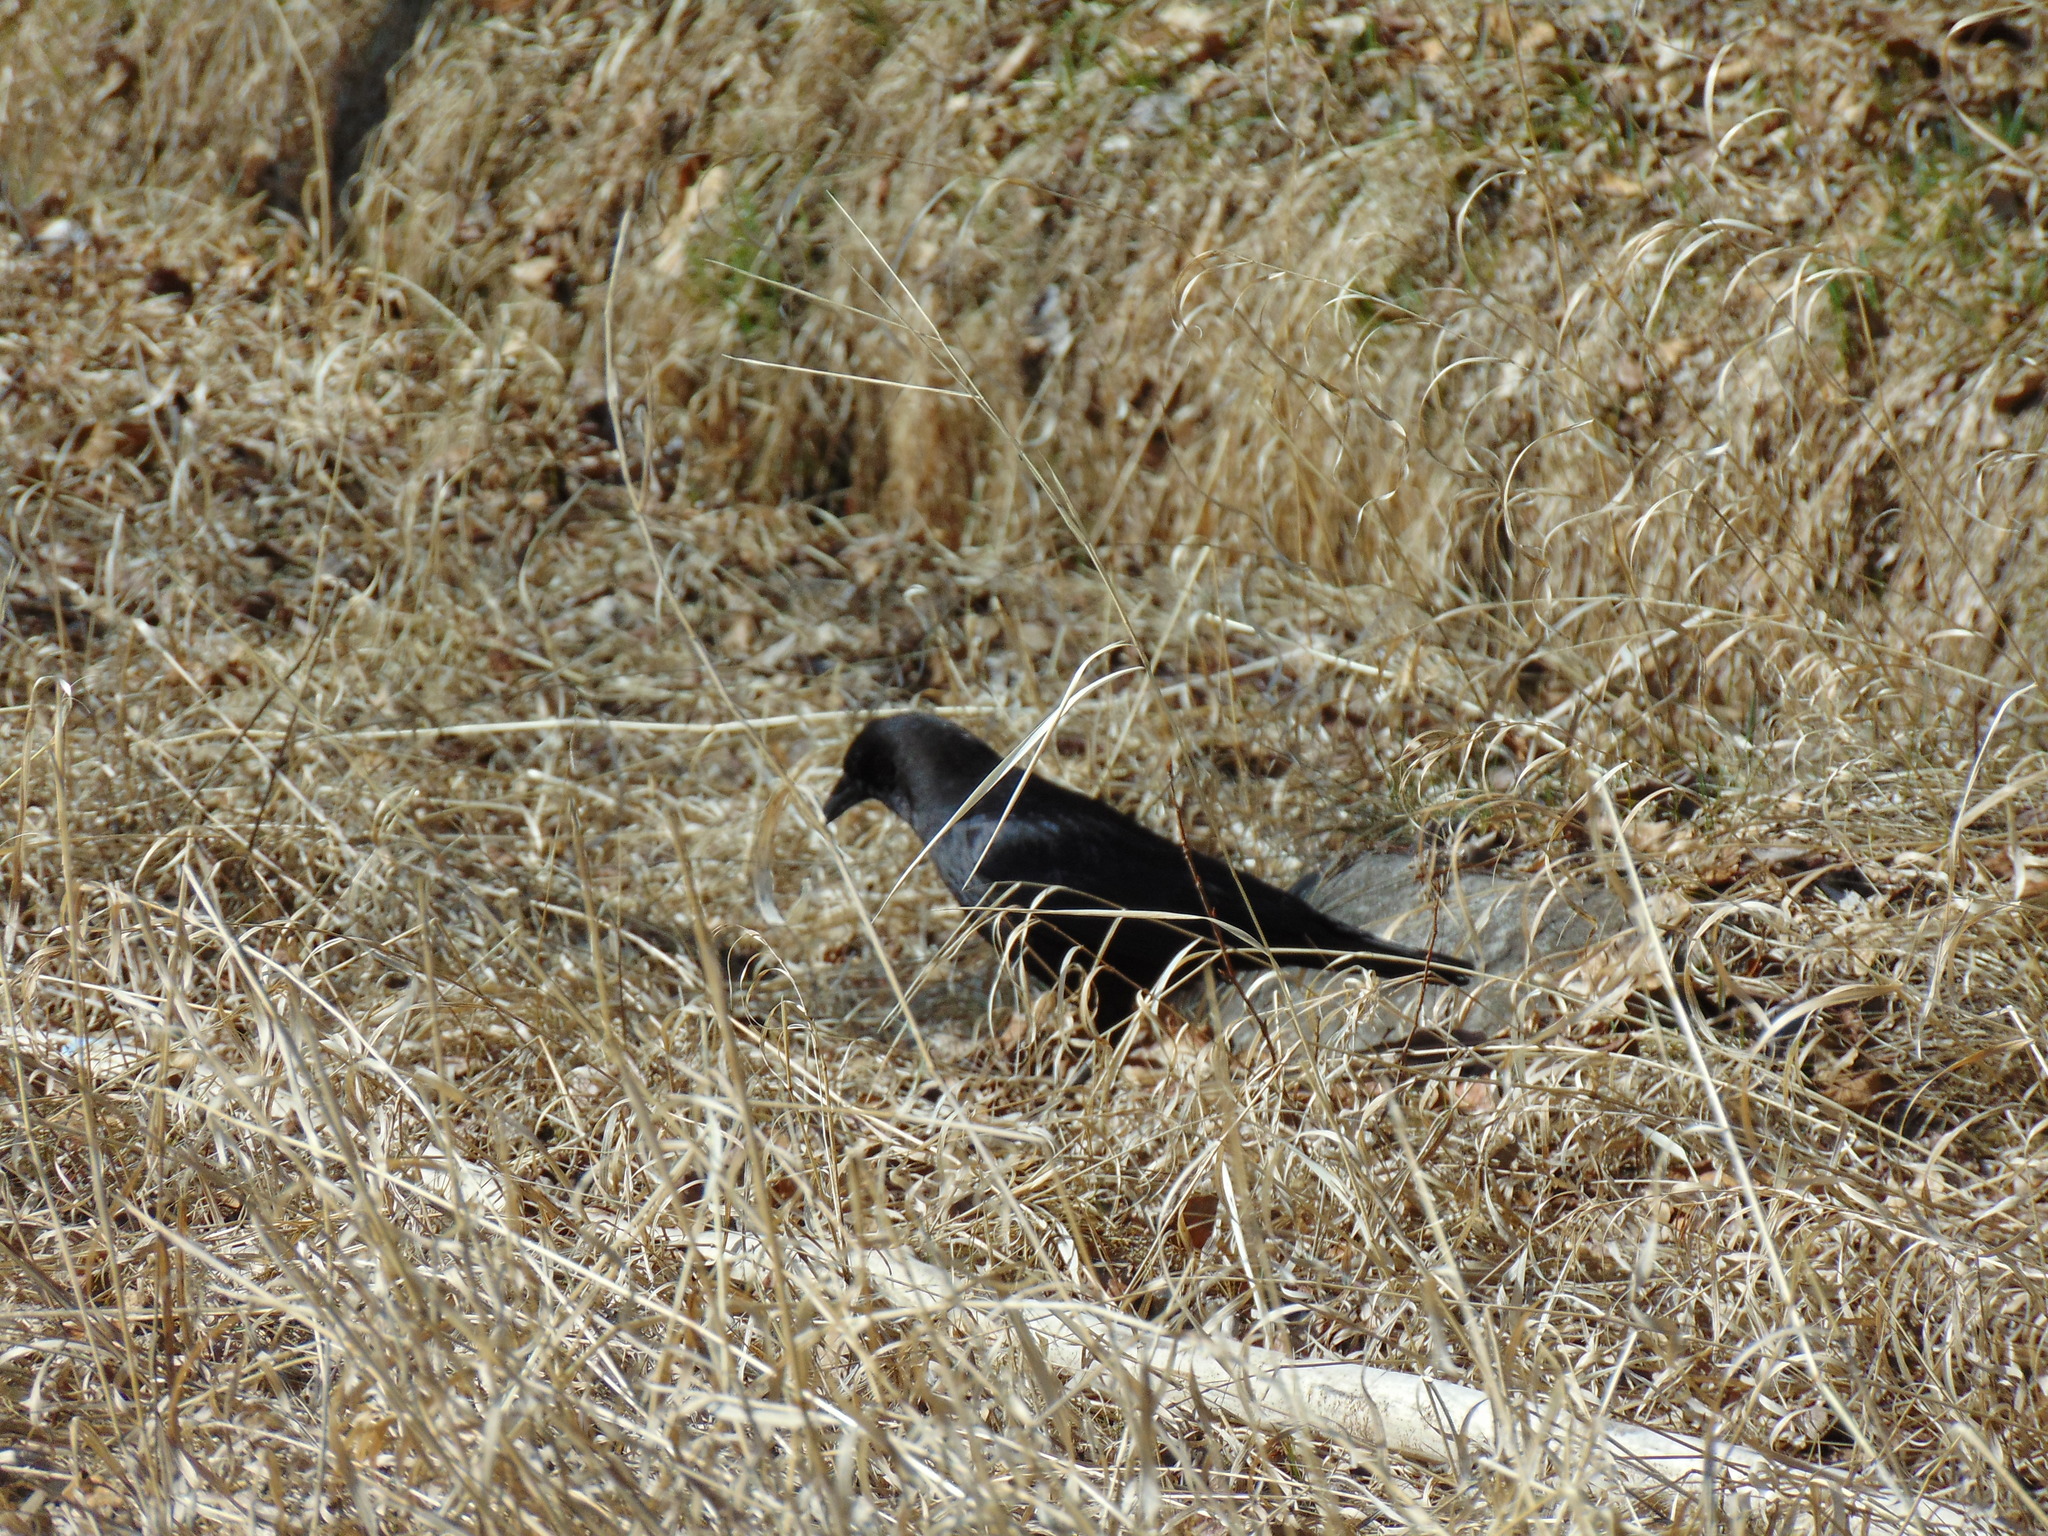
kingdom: Animalia
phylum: Chordata
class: Aves
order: Passeriformes
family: Corvidae
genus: Corvus
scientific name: Corvus brachyrhynchos
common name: American crow
